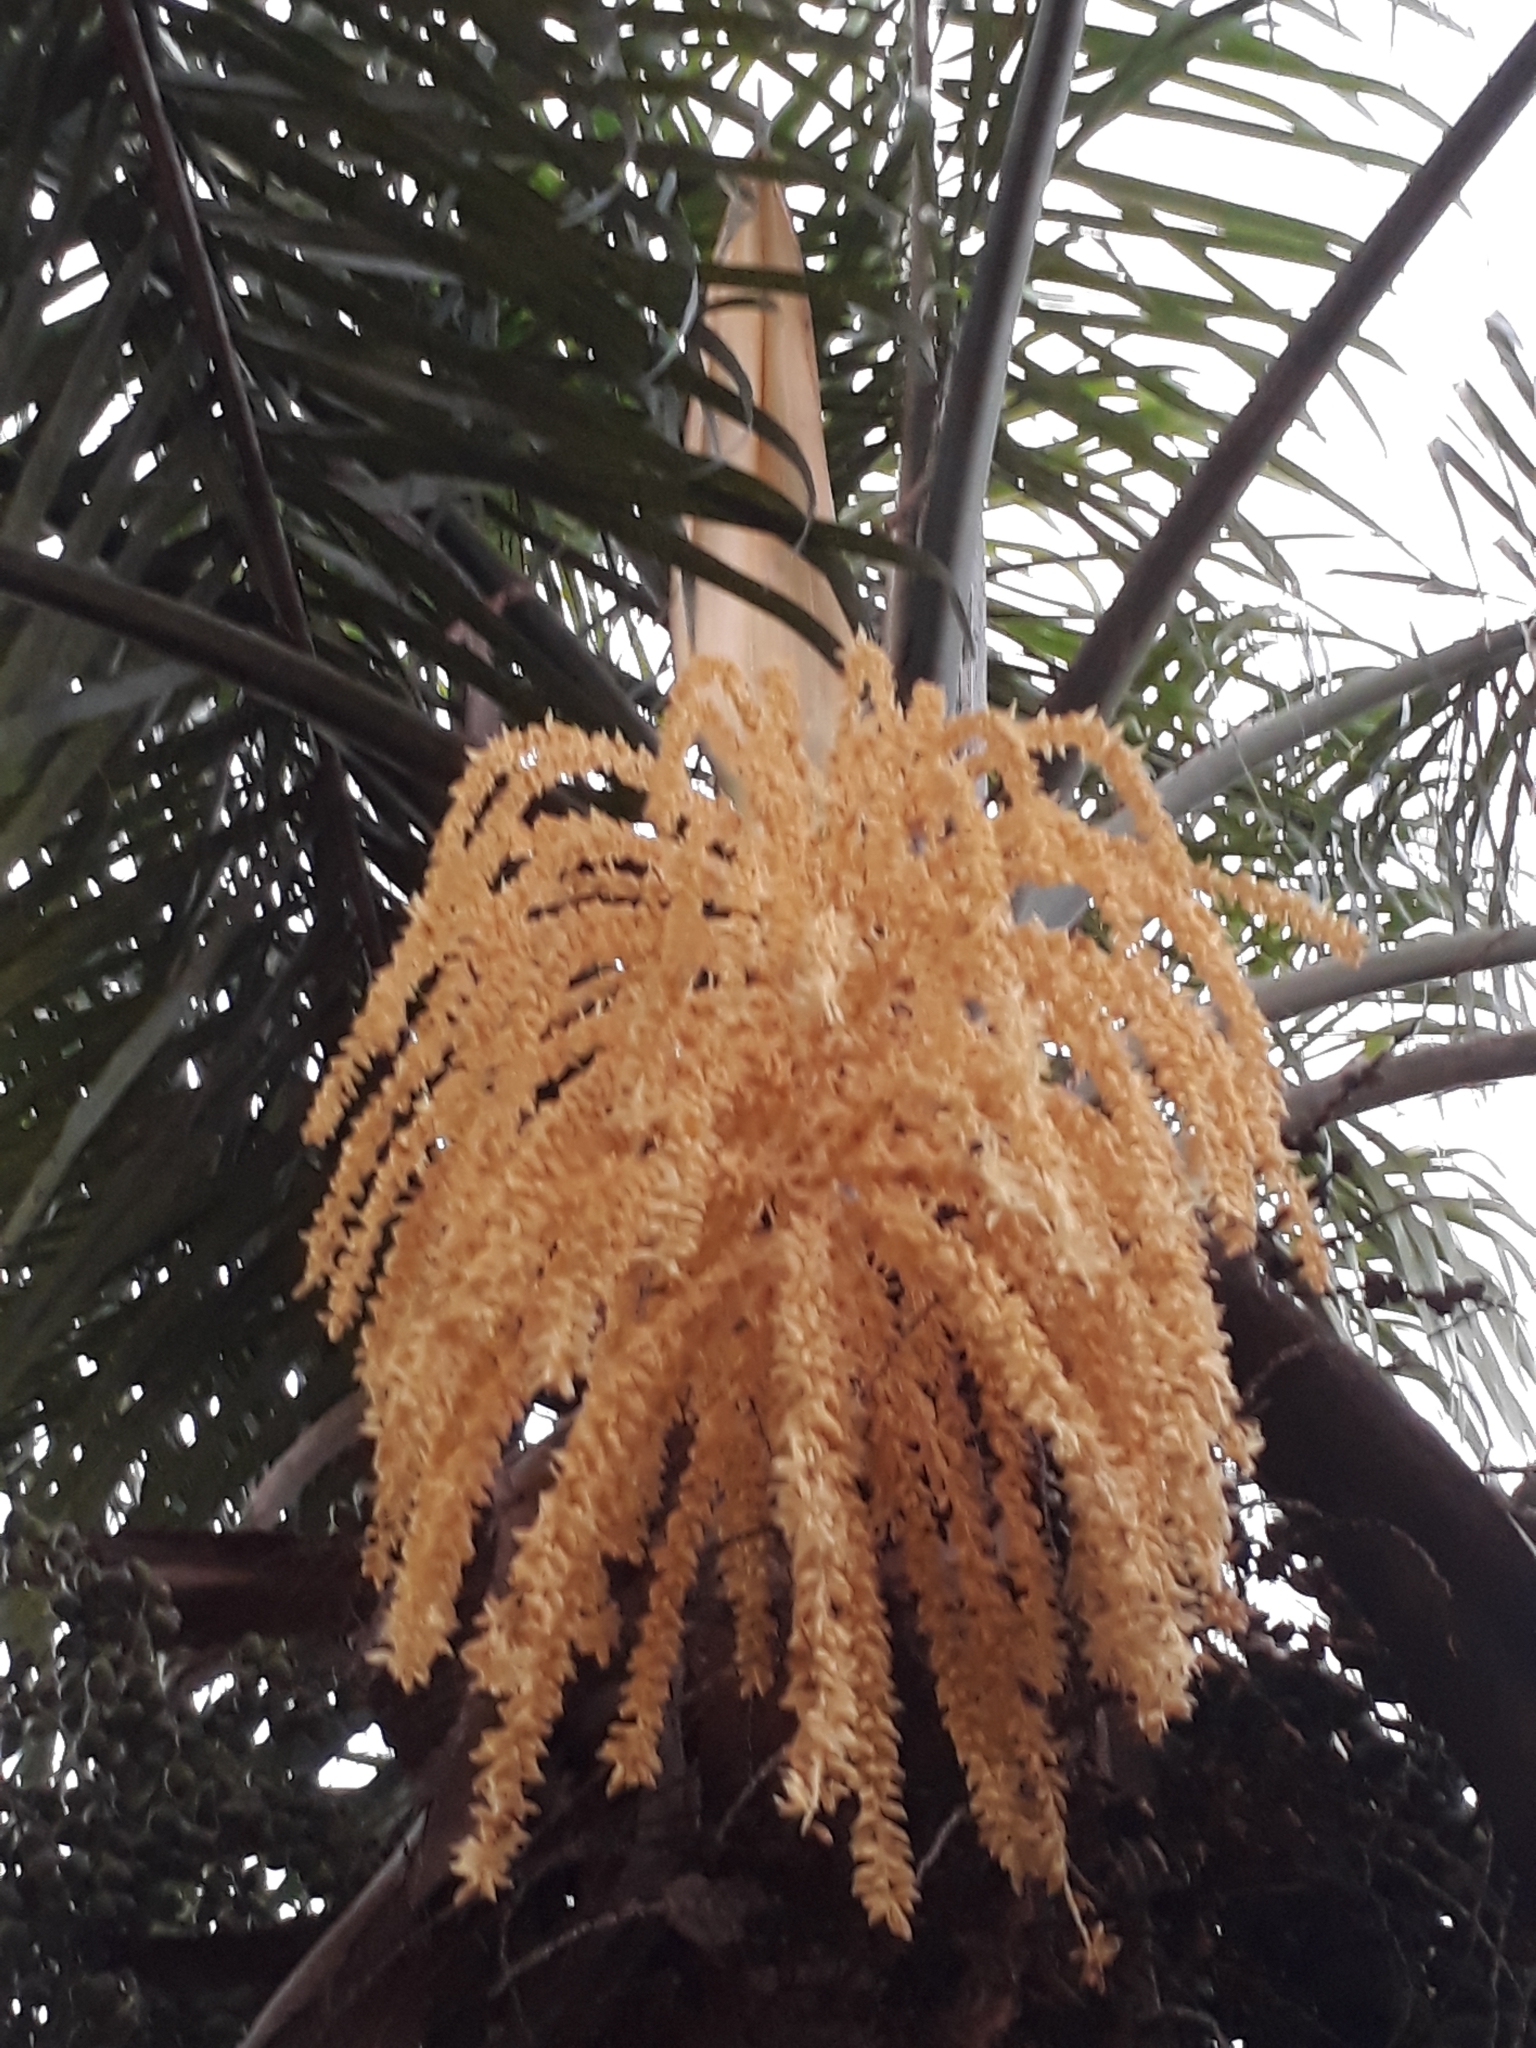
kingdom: Plantae
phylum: Tracheophyta
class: Liliopsida
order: Arecales
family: Arecaceae
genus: Syagrus
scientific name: Syagrus romanzoffiana
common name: Queen palm
